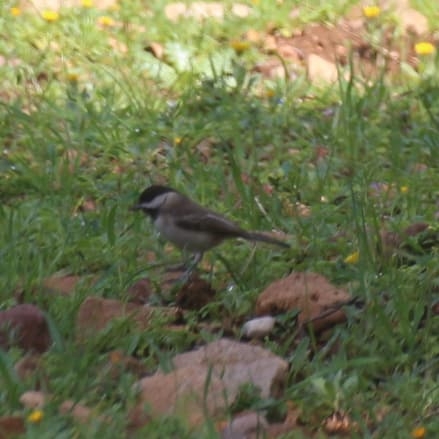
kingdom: Animalia
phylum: Chordata
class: Aves
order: Passeriformes
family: Paridae
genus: Poecile
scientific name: Poecile lugubris
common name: Sombre tit
